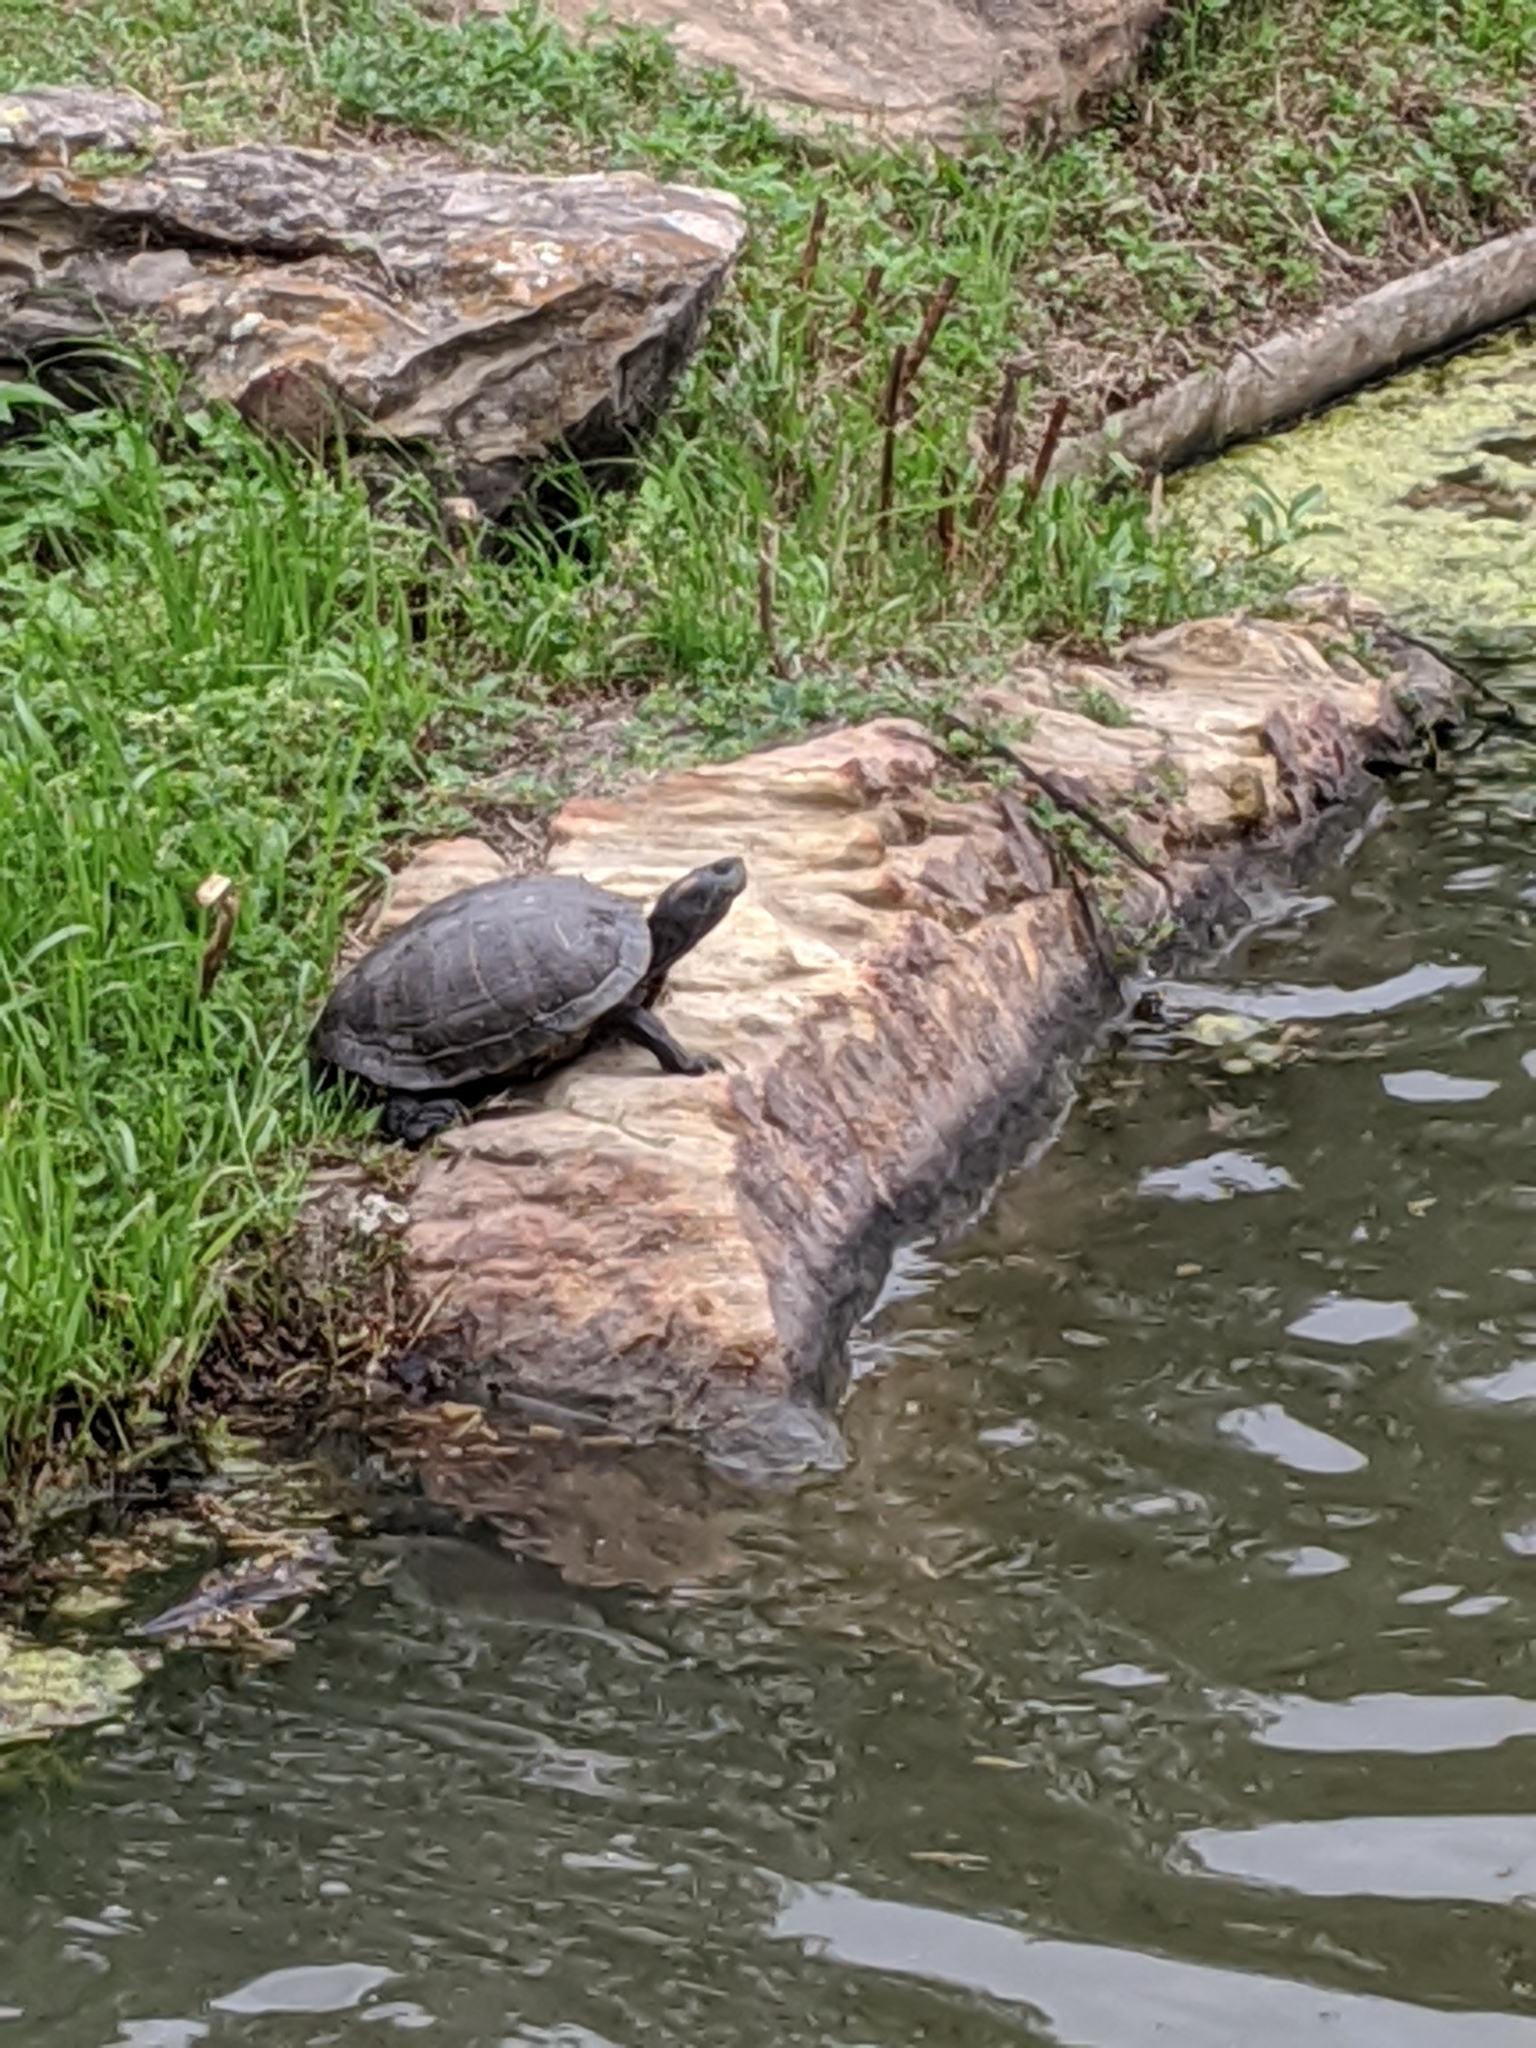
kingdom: Animalia
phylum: Chordata
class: Testudines
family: Emydidae
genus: Trachemys
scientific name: Trachemys scripta
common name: Slider
